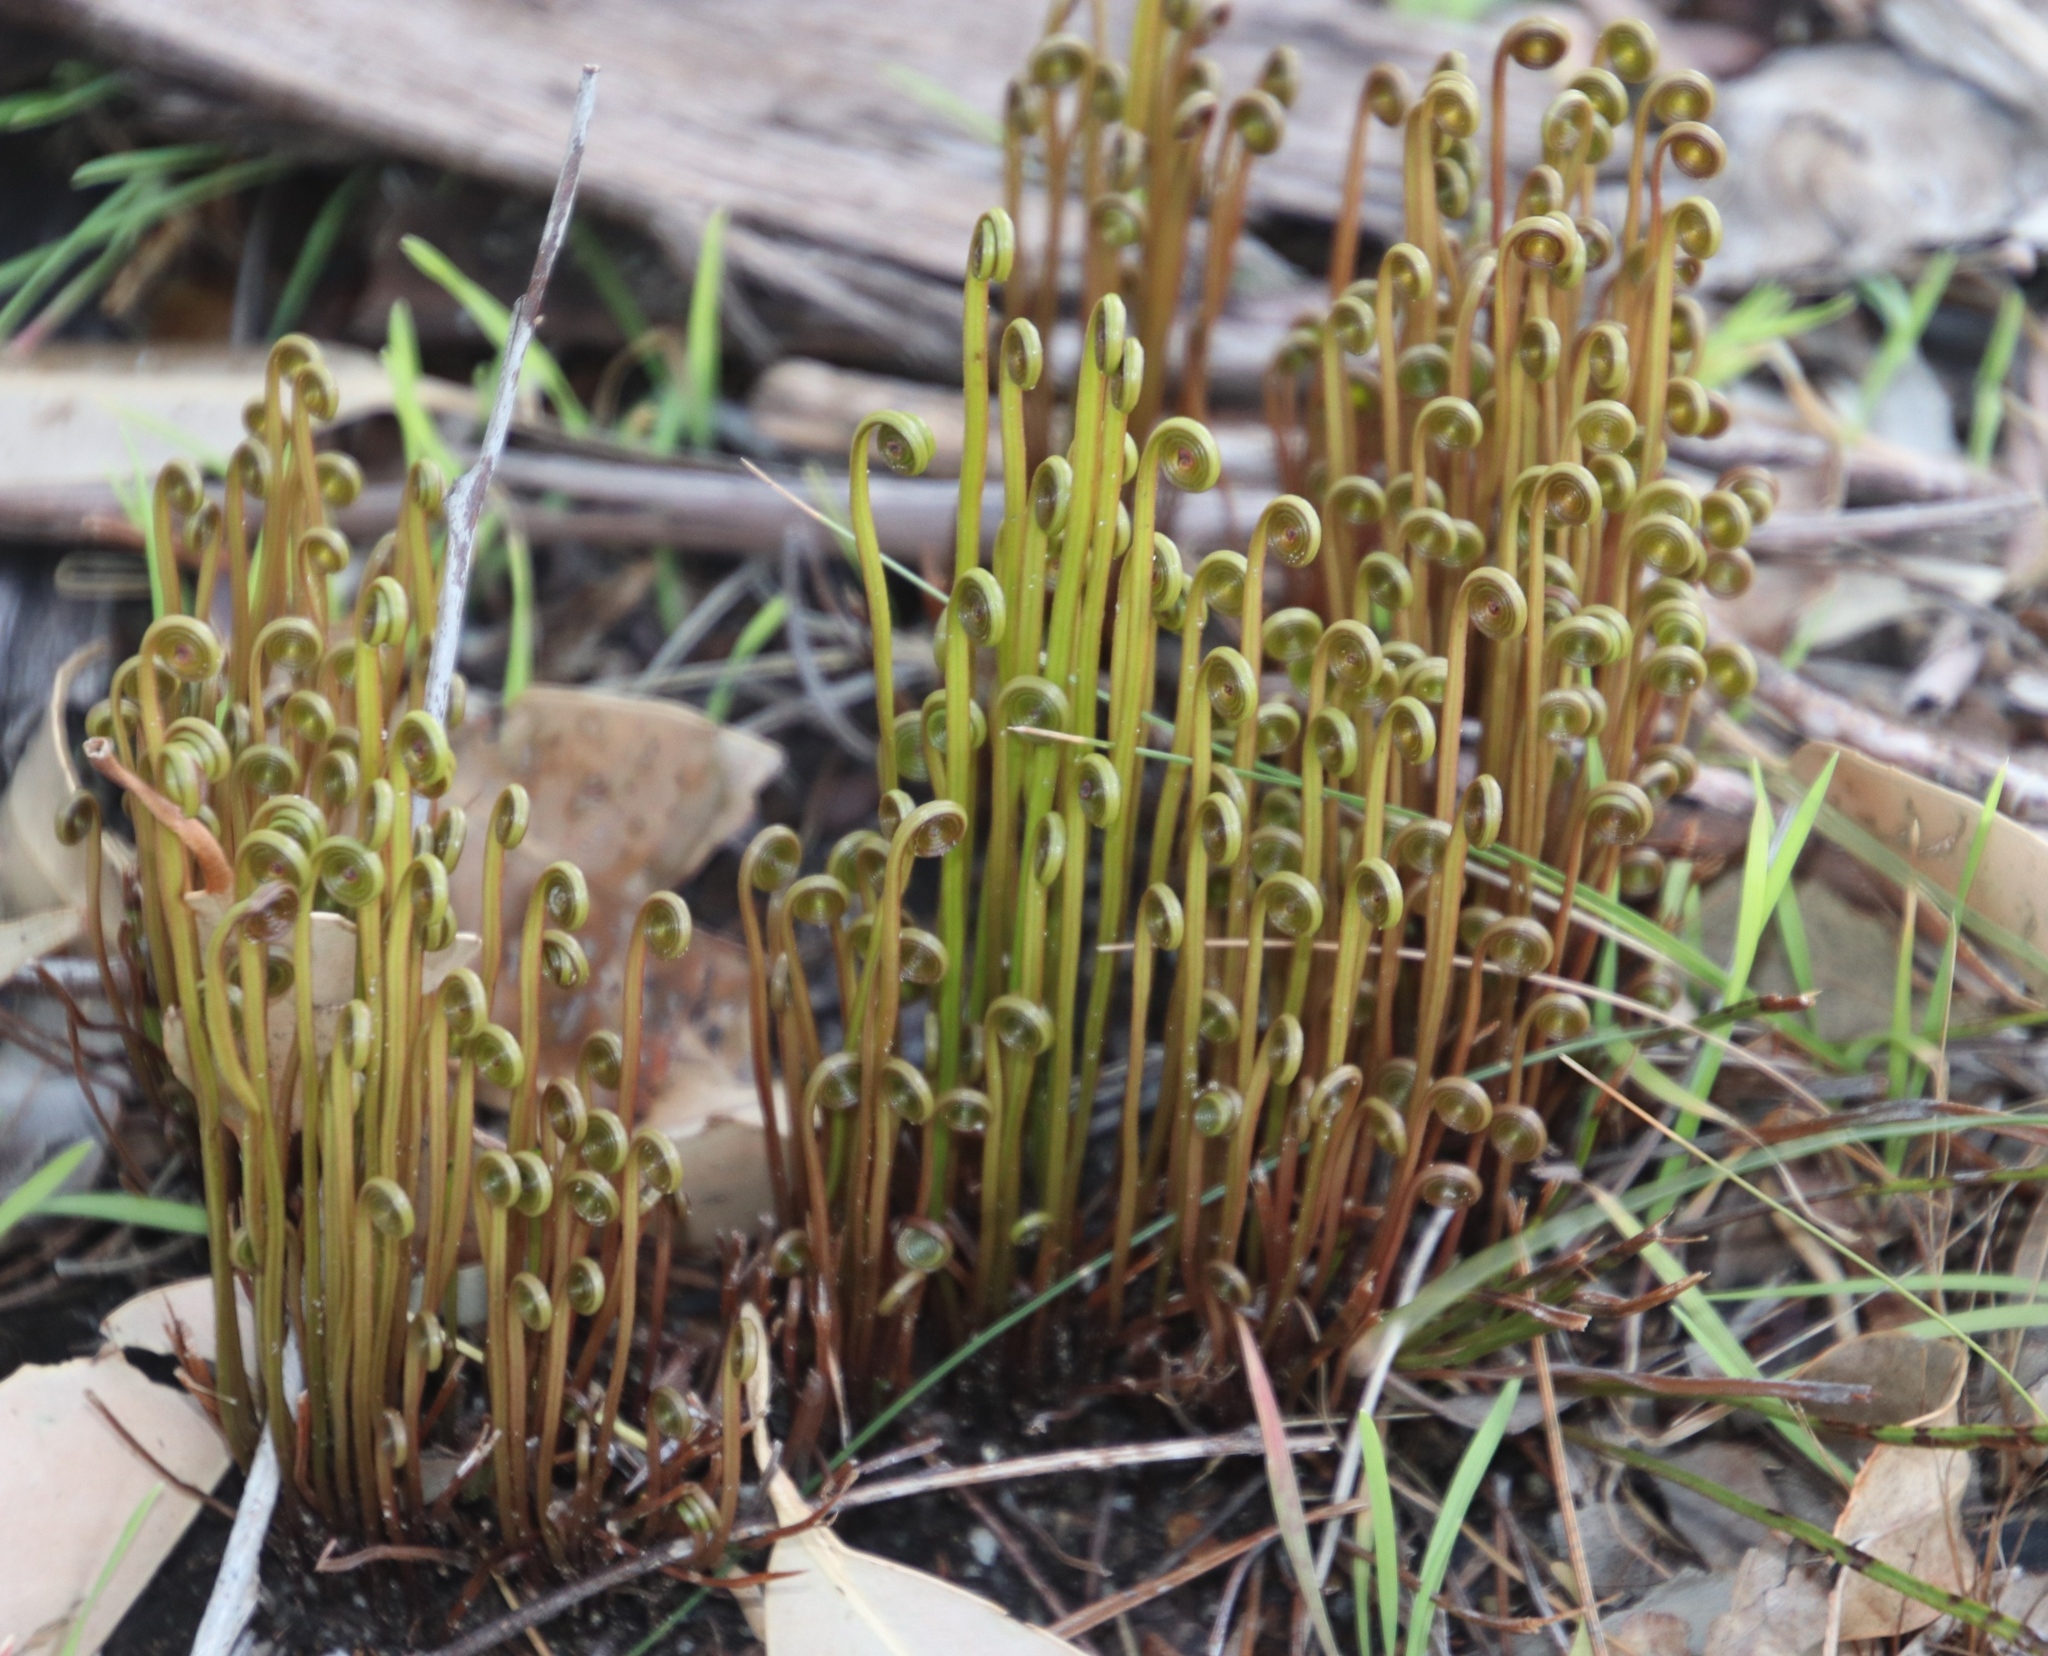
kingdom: Plantae
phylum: Tracheophyta
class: Polypodiopsida
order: Schizaeales
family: Schizaeaceae
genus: Schizaea
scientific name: Schizaea pectinata
